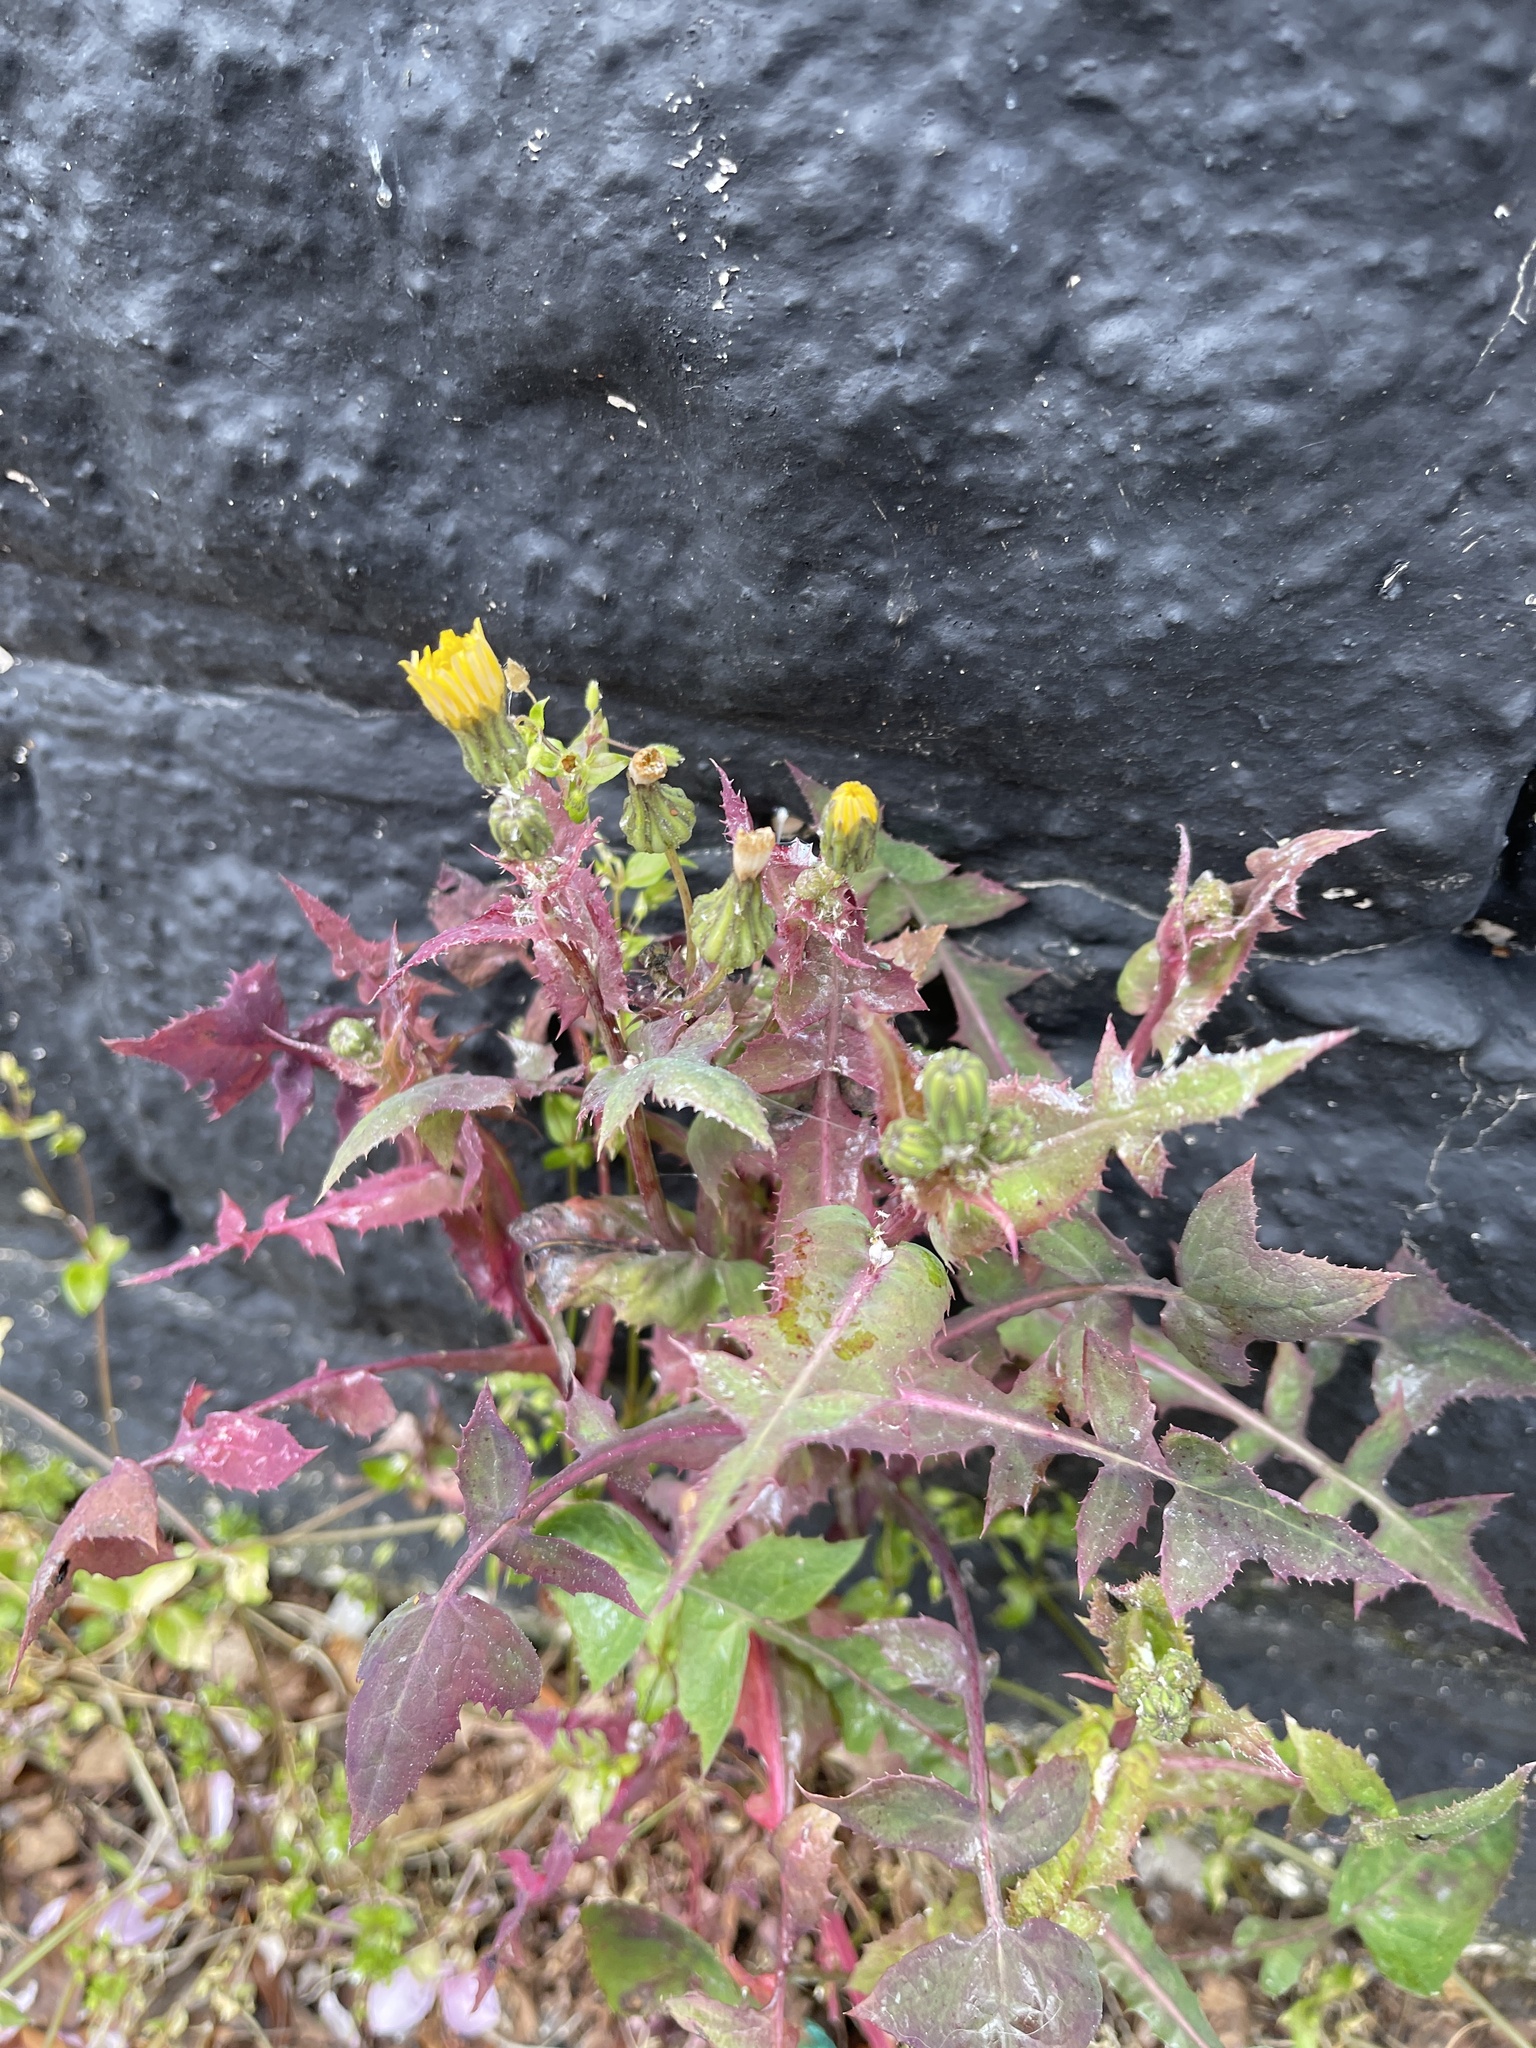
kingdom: Plantae
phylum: Tracheophyta
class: Magnoliopsida
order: Asterales
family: Asteraceae
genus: Sonchus
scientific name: Sonchus oleraceus
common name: Common sowthistle
